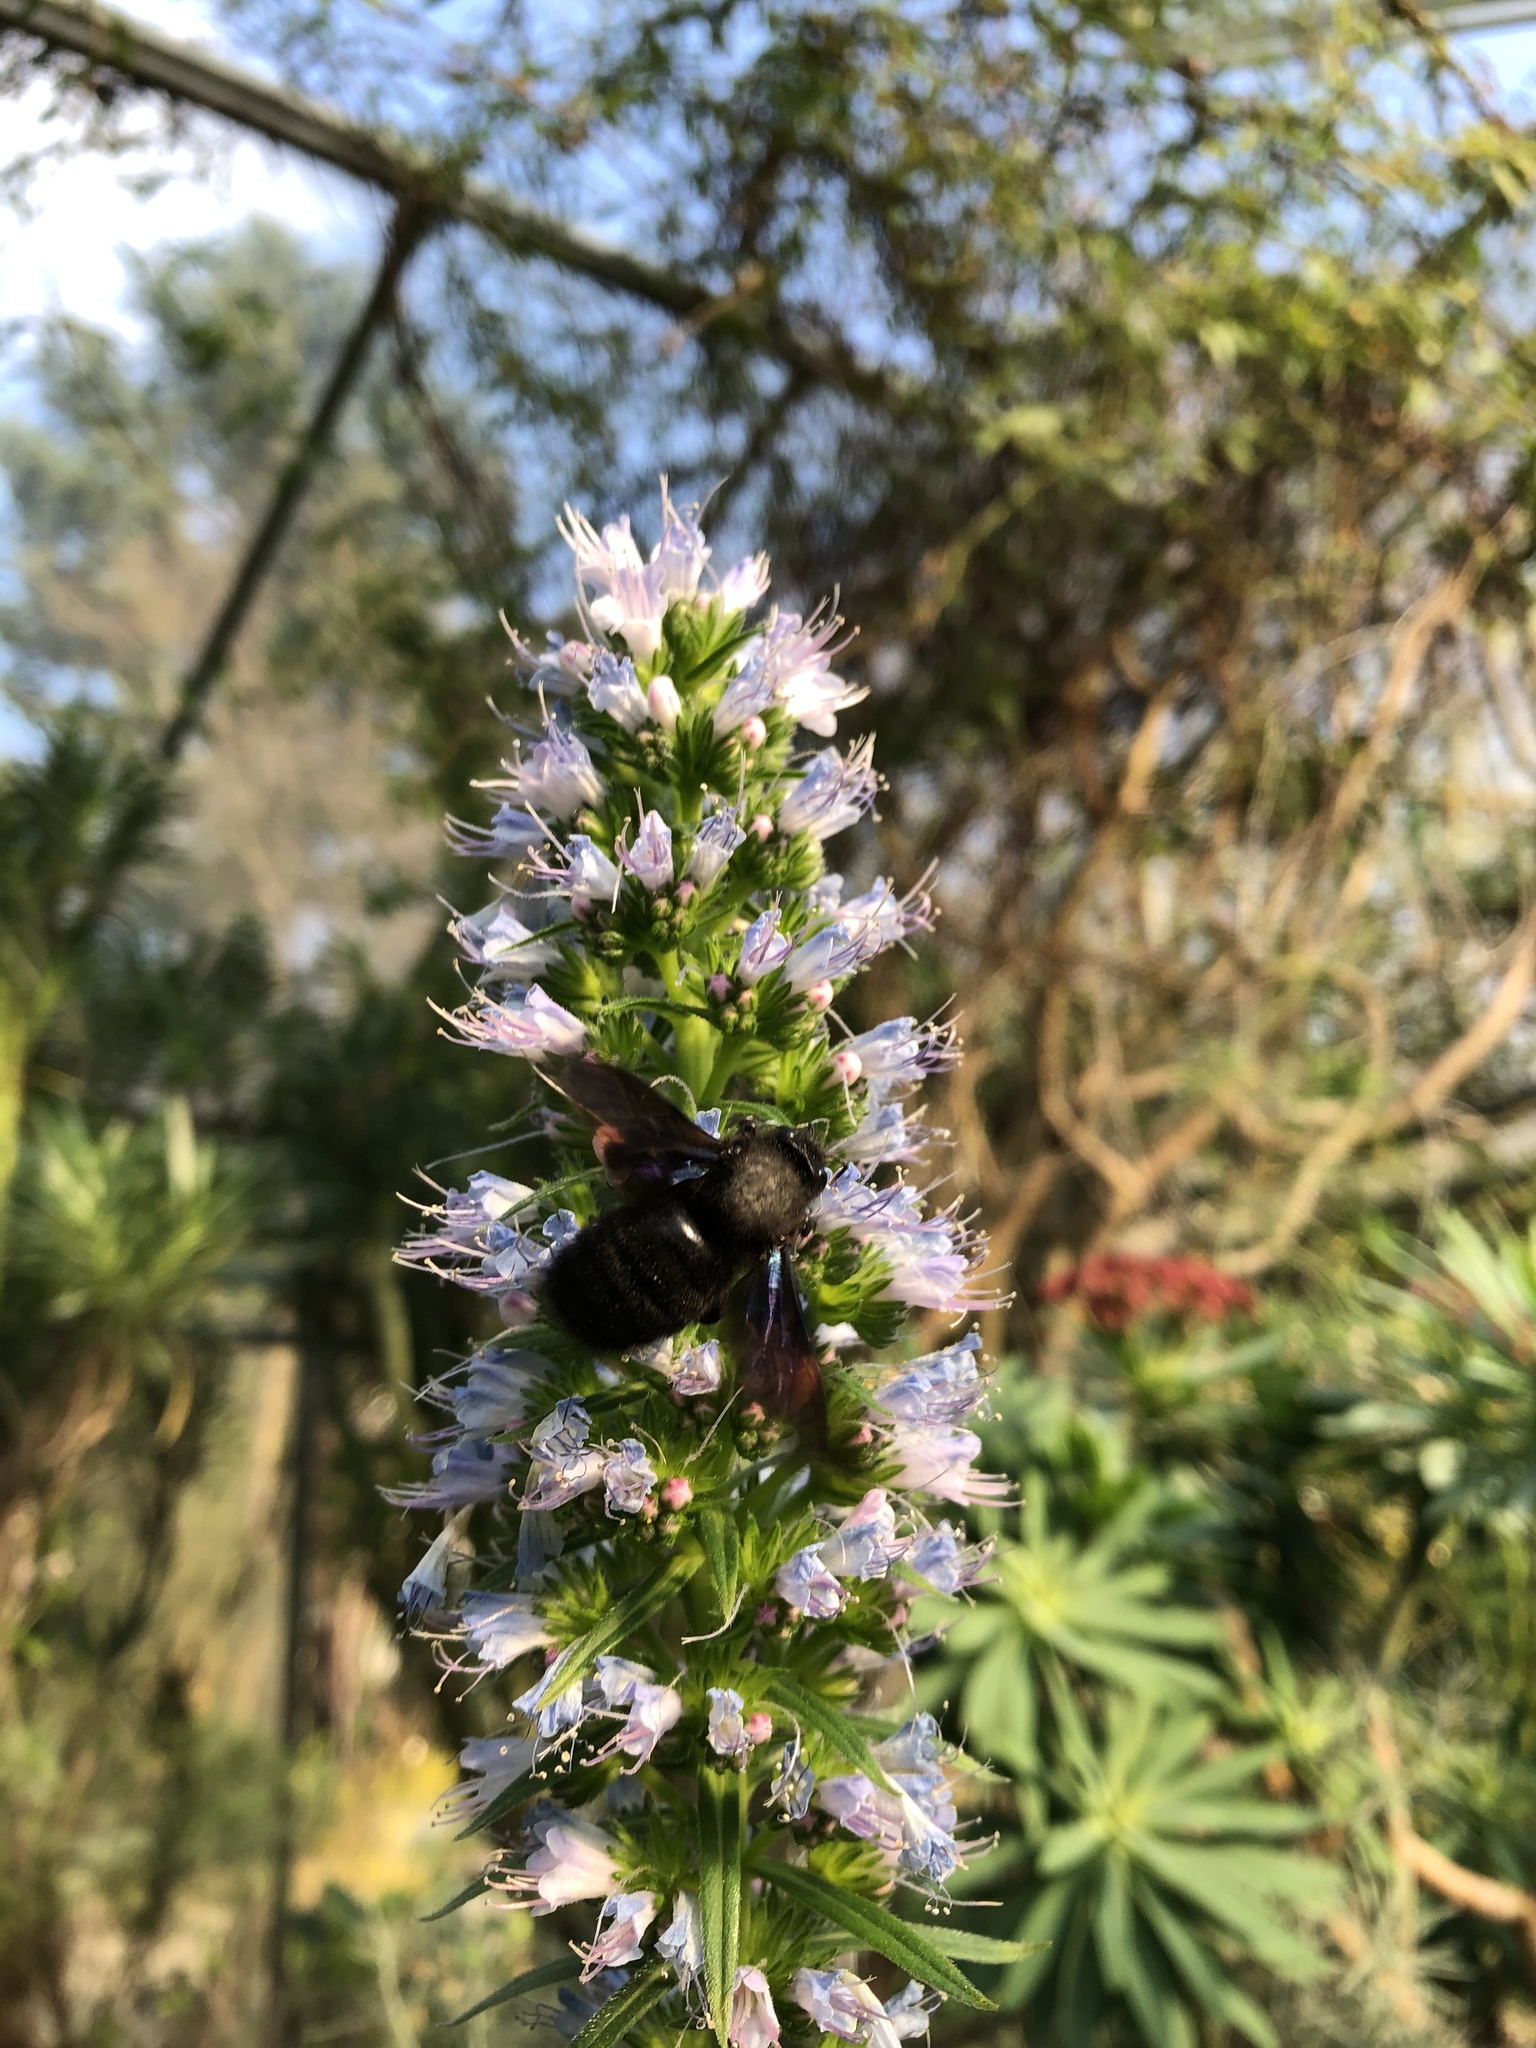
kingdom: Animalia
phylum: Arthropoda
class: Insecta
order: Hymenoptera
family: Apidae
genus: Xylocopa
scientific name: Xylocopa violacea
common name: Violet carpenter bee
